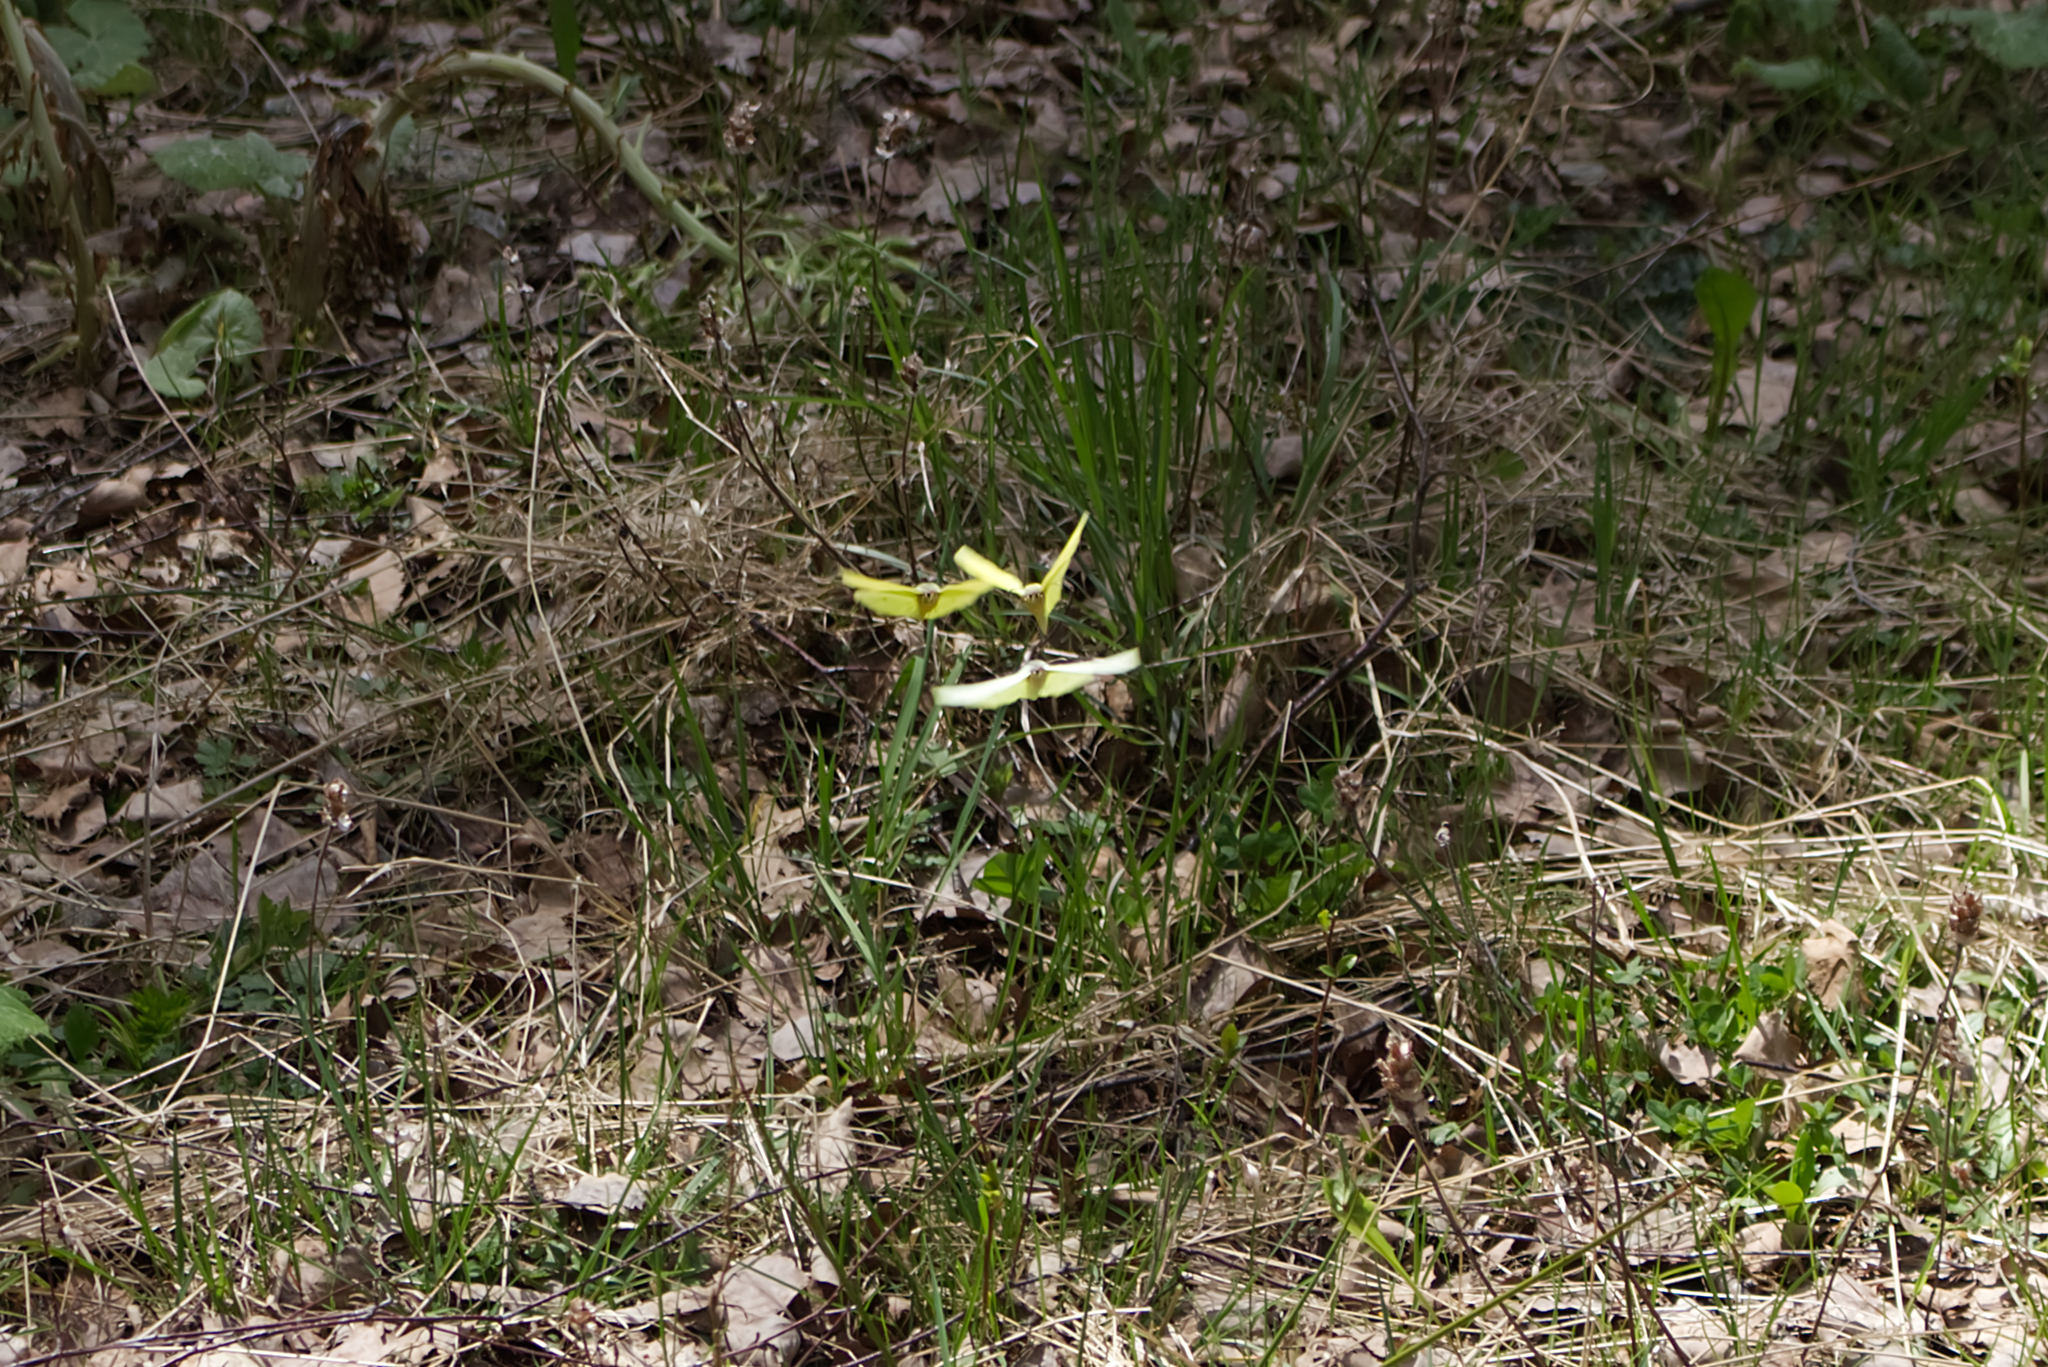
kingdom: Animalia
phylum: Arthropoda
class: Insecta
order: Lepidoptera
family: Pieridae
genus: Gonepteryx
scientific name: Gonepteryx rhamni
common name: Brimstone
